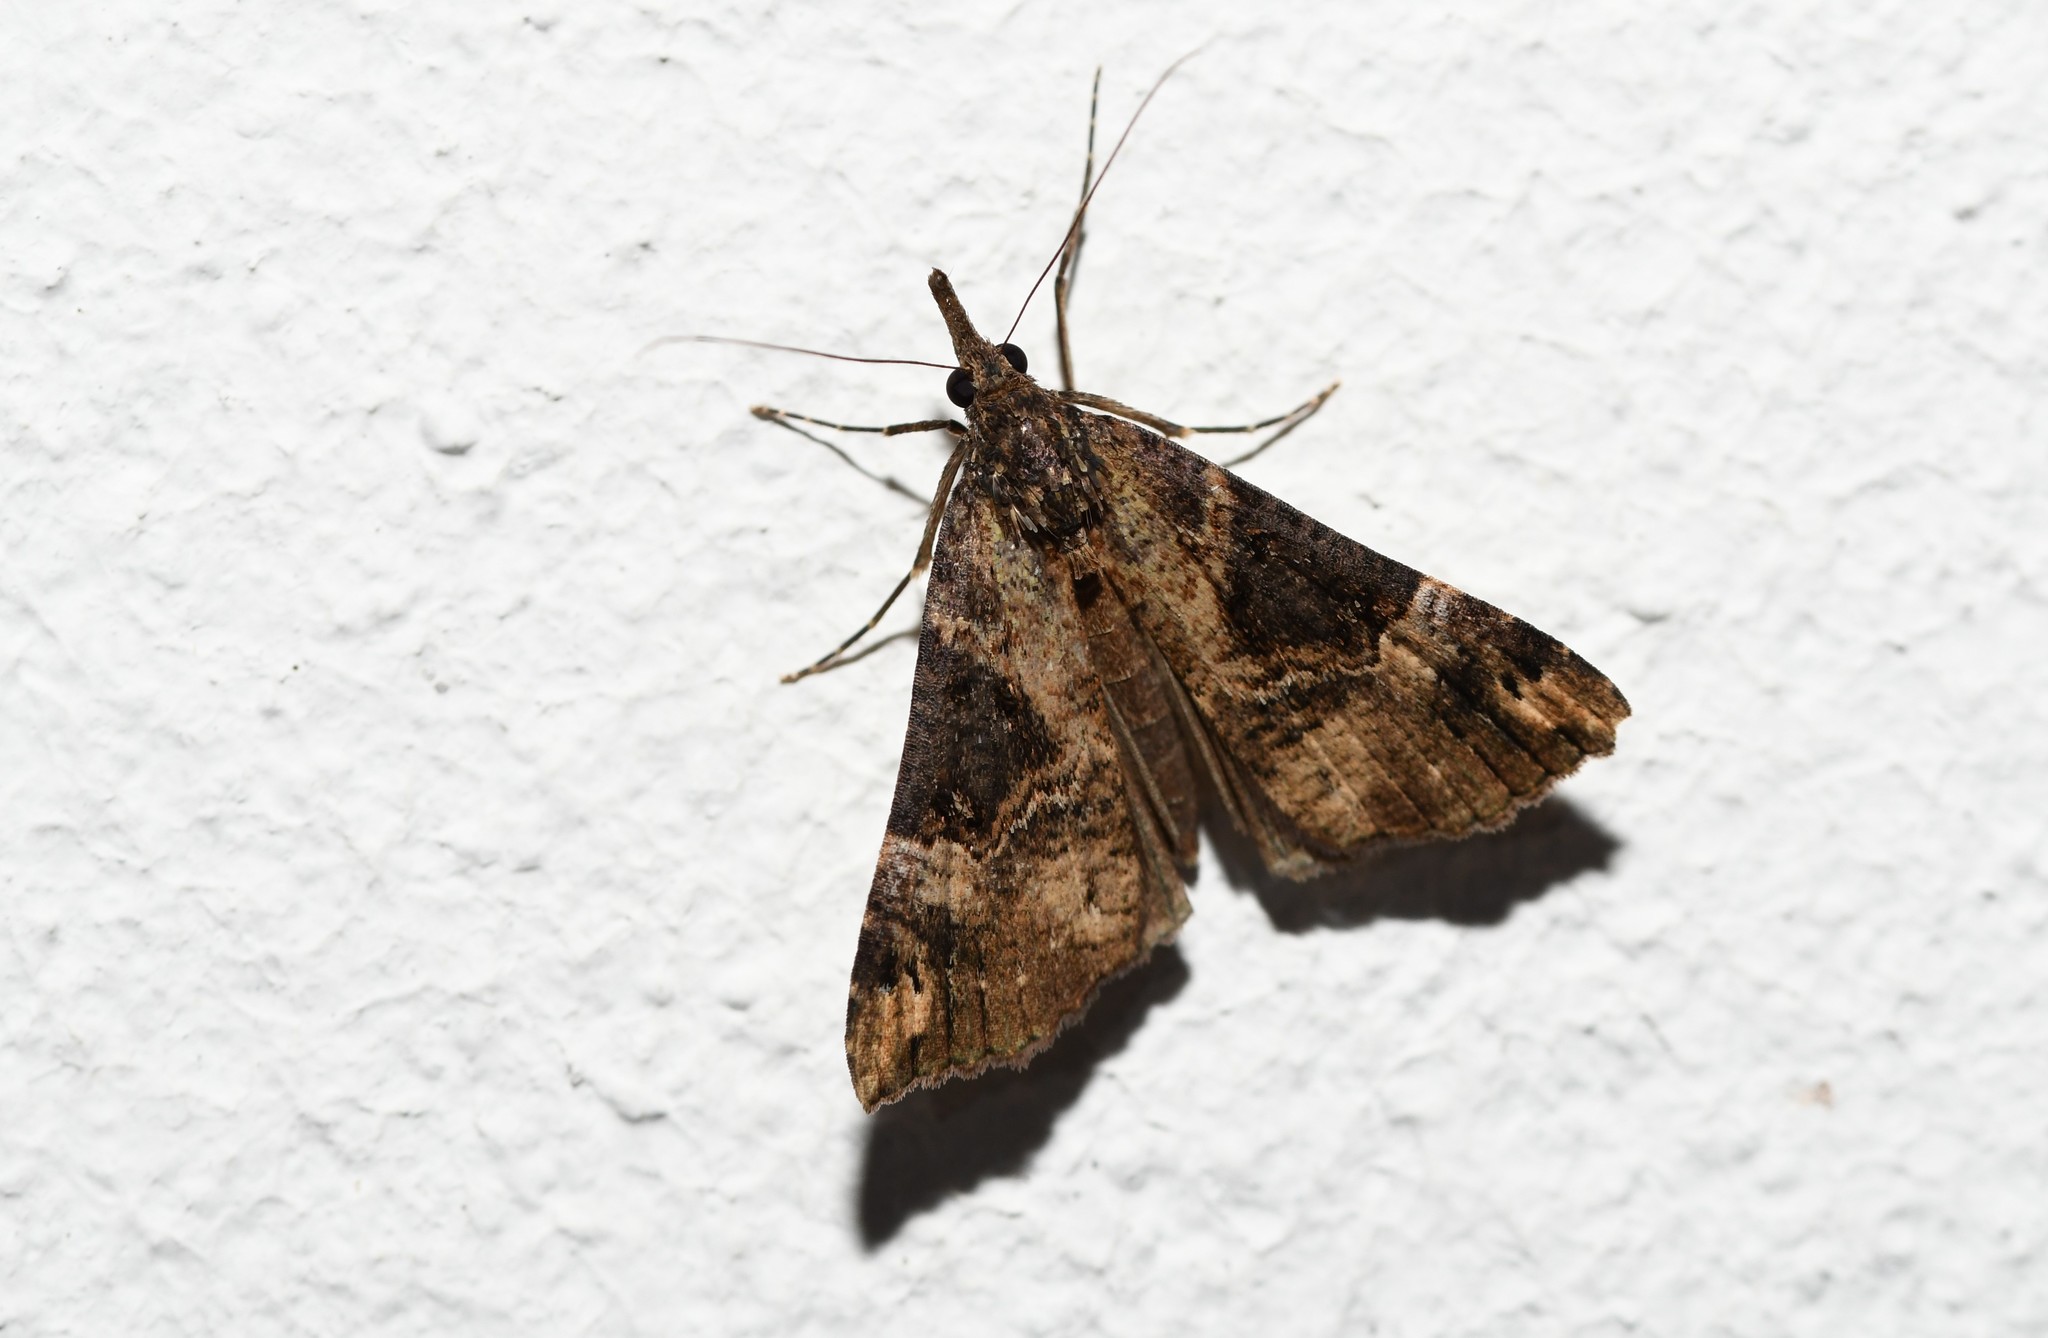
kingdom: Animalia
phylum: Arthropoda
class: Insecta
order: Lepidoptera
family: Erebidae
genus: Hypena
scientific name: Hypena obsitalis
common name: Bloxworth snout
